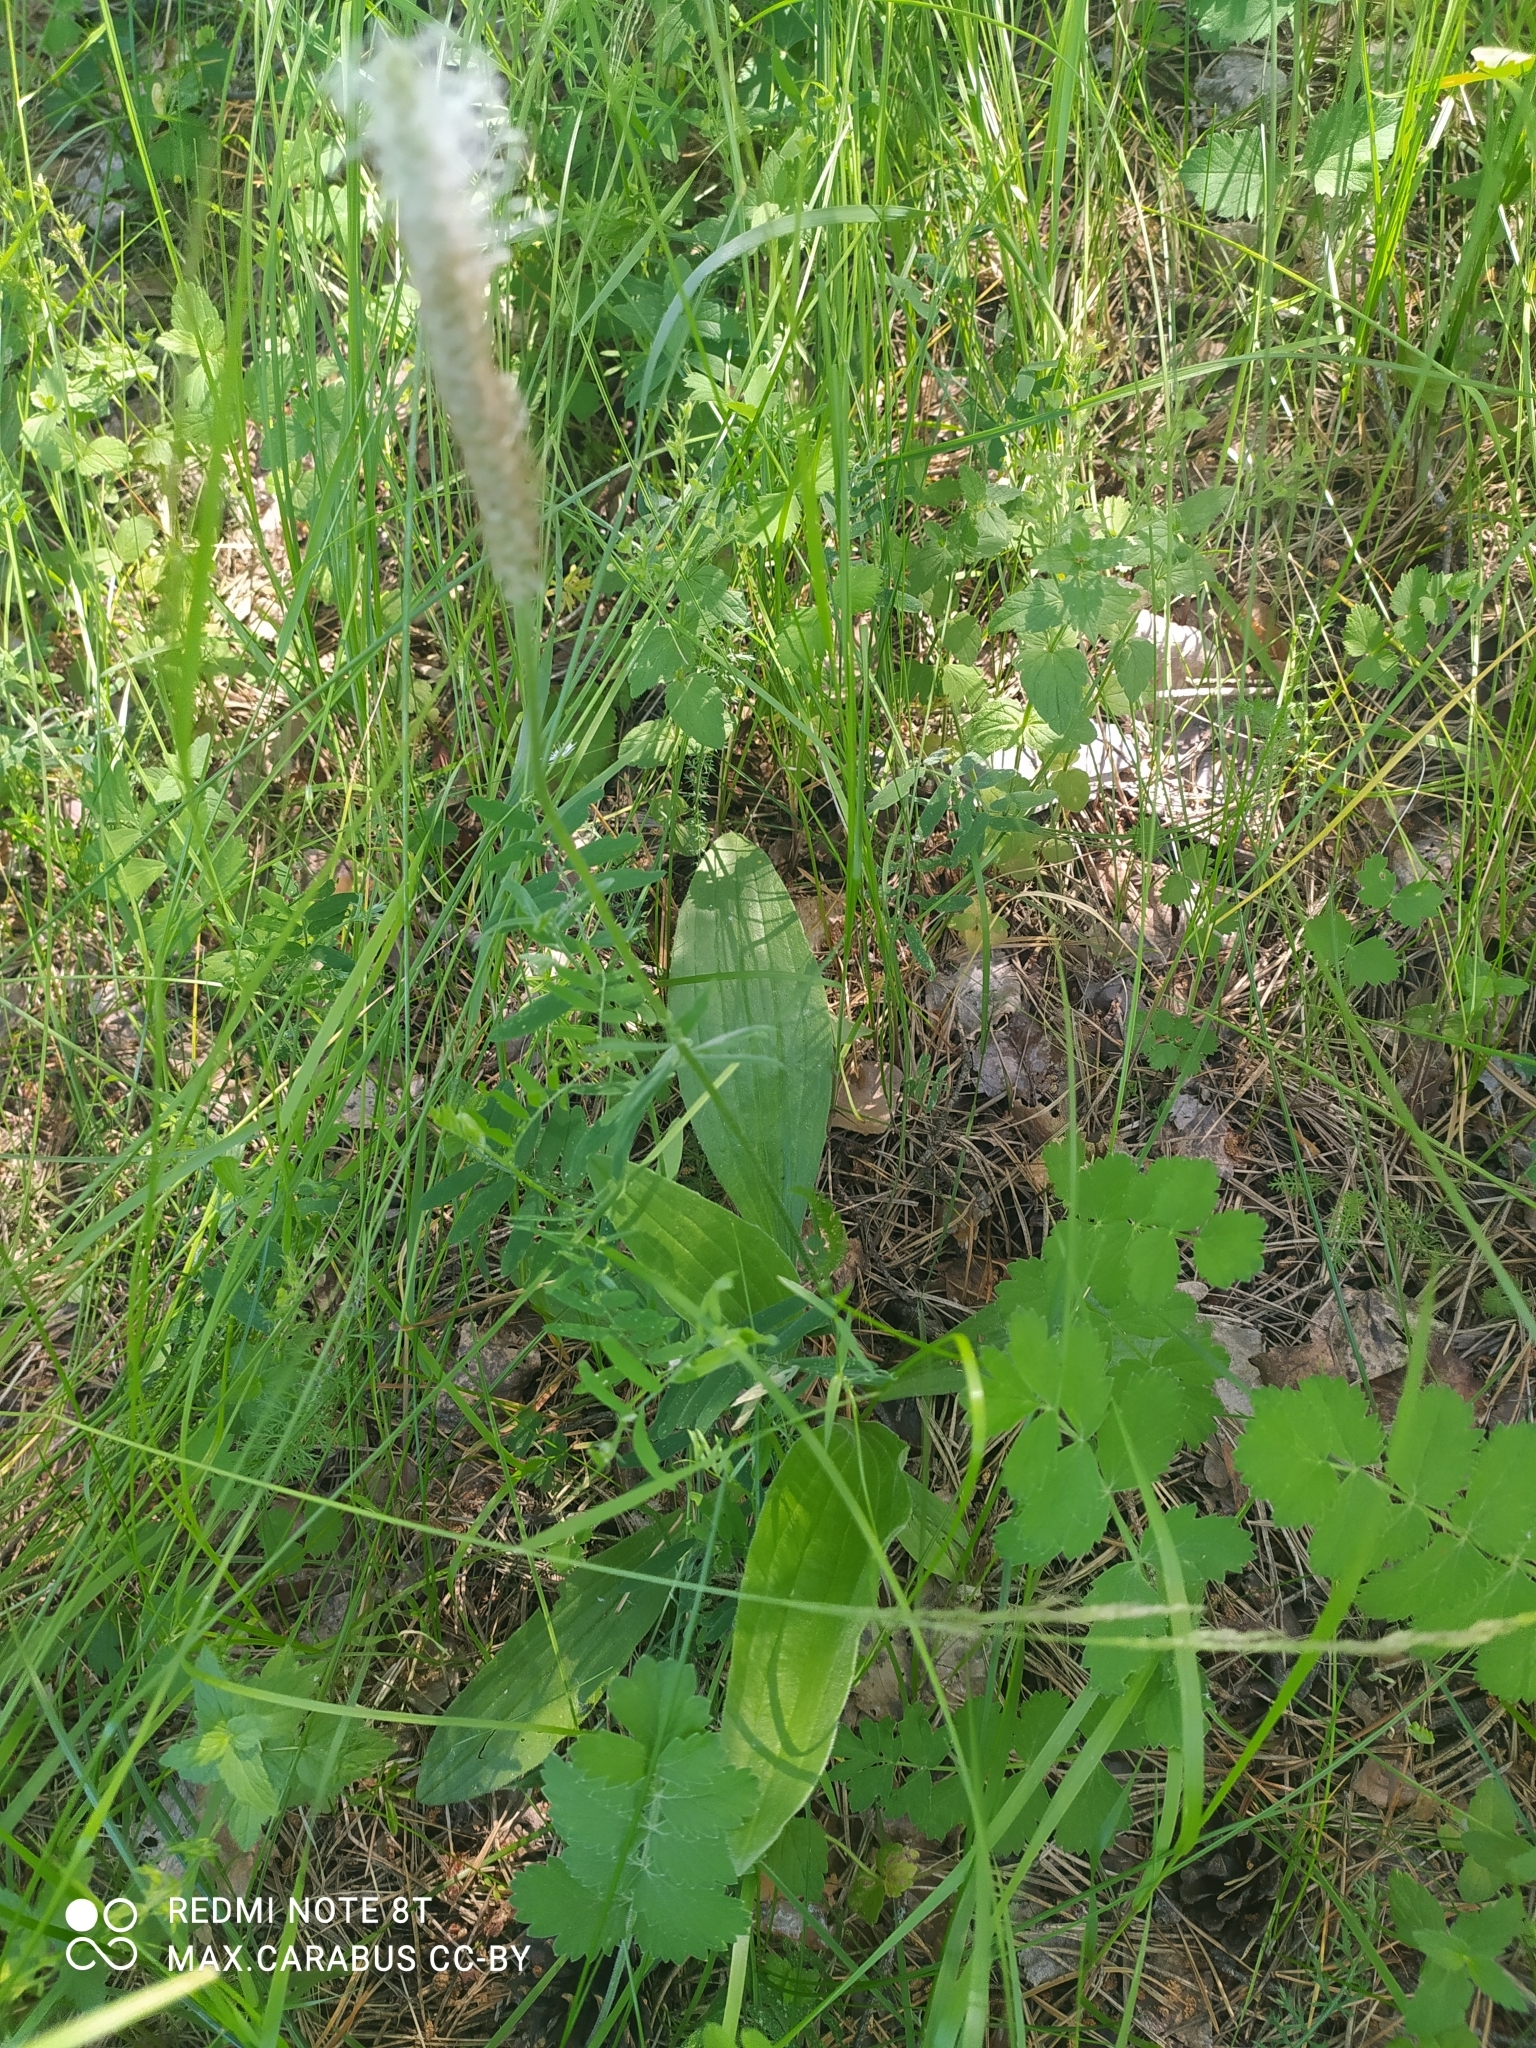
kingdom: Plantae
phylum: Tracheophyta
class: Magnoliopsida
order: Lamiales
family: Plantaginaceae
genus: Plantago
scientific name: Plantago media
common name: Hoary plantain
